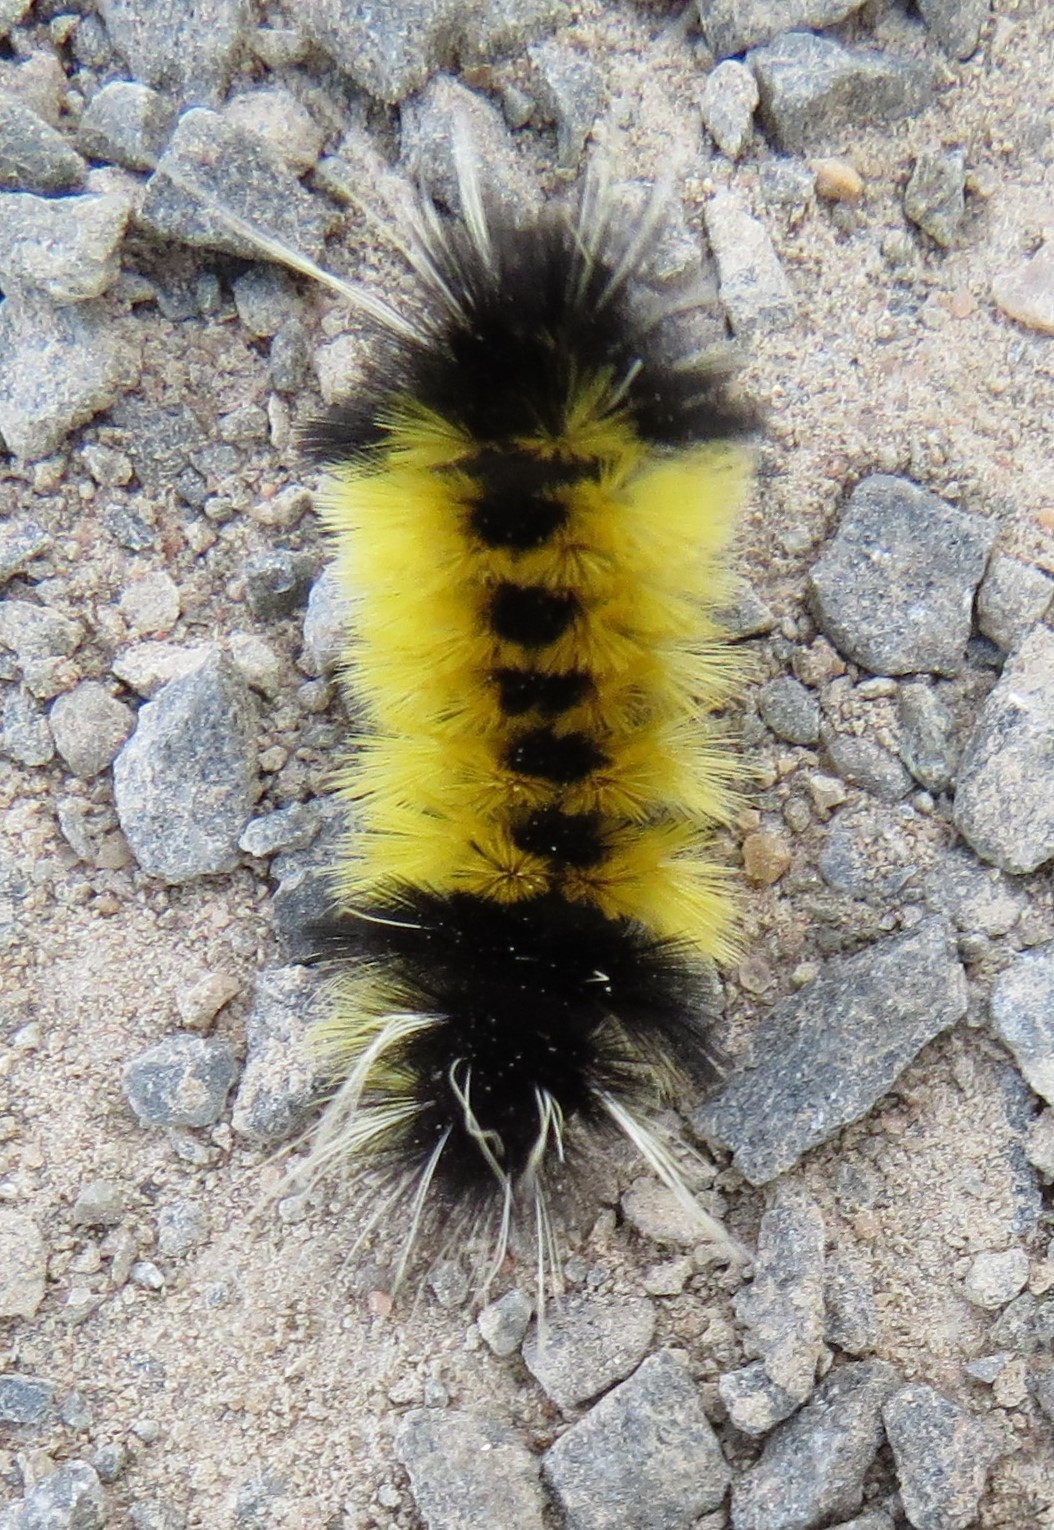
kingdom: Animalia
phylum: Arthropoda
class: Insecta
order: Lepidoptera
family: Erebidae
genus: Lophocampa
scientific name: Lophocampa maculata
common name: Spotted tussock moth
